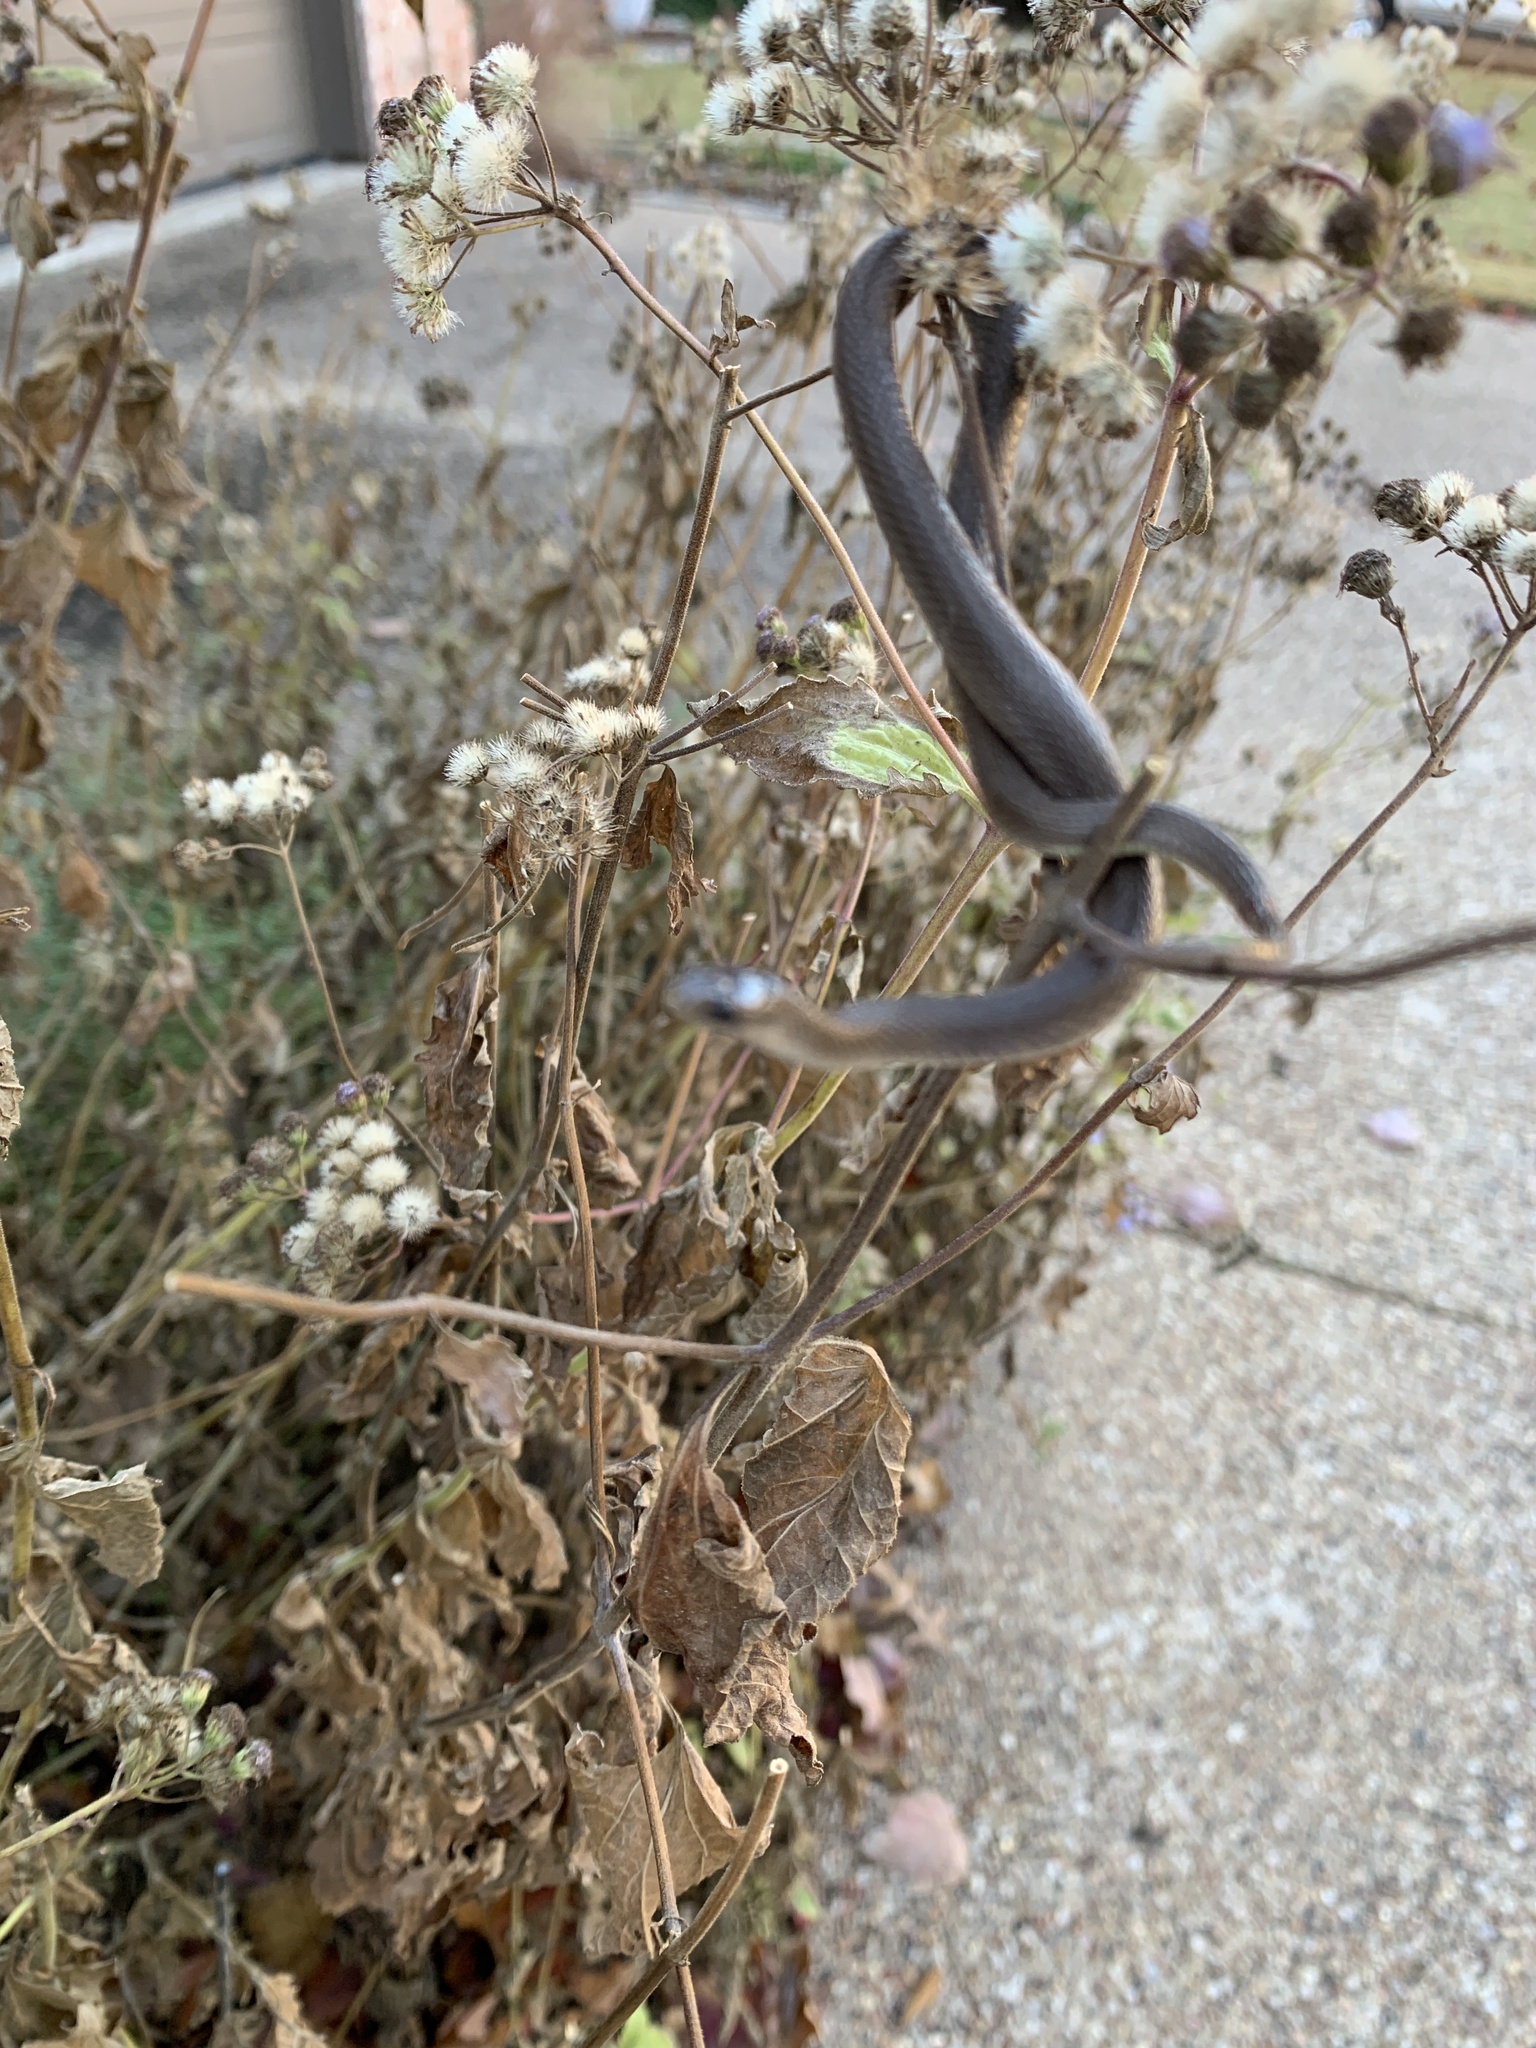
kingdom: Animalia
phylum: Chordata
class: Squamata
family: Colubridae
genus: Haldea
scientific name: Haldea striatula
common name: Rough earth snake
